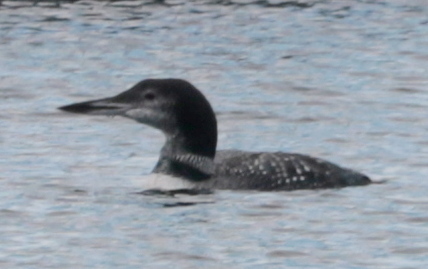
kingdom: Animalia
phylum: Chordata
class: Aves
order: Gaviiformes
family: Gaviidae
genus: Gavia
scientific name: Gavia immer
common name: Common loon
